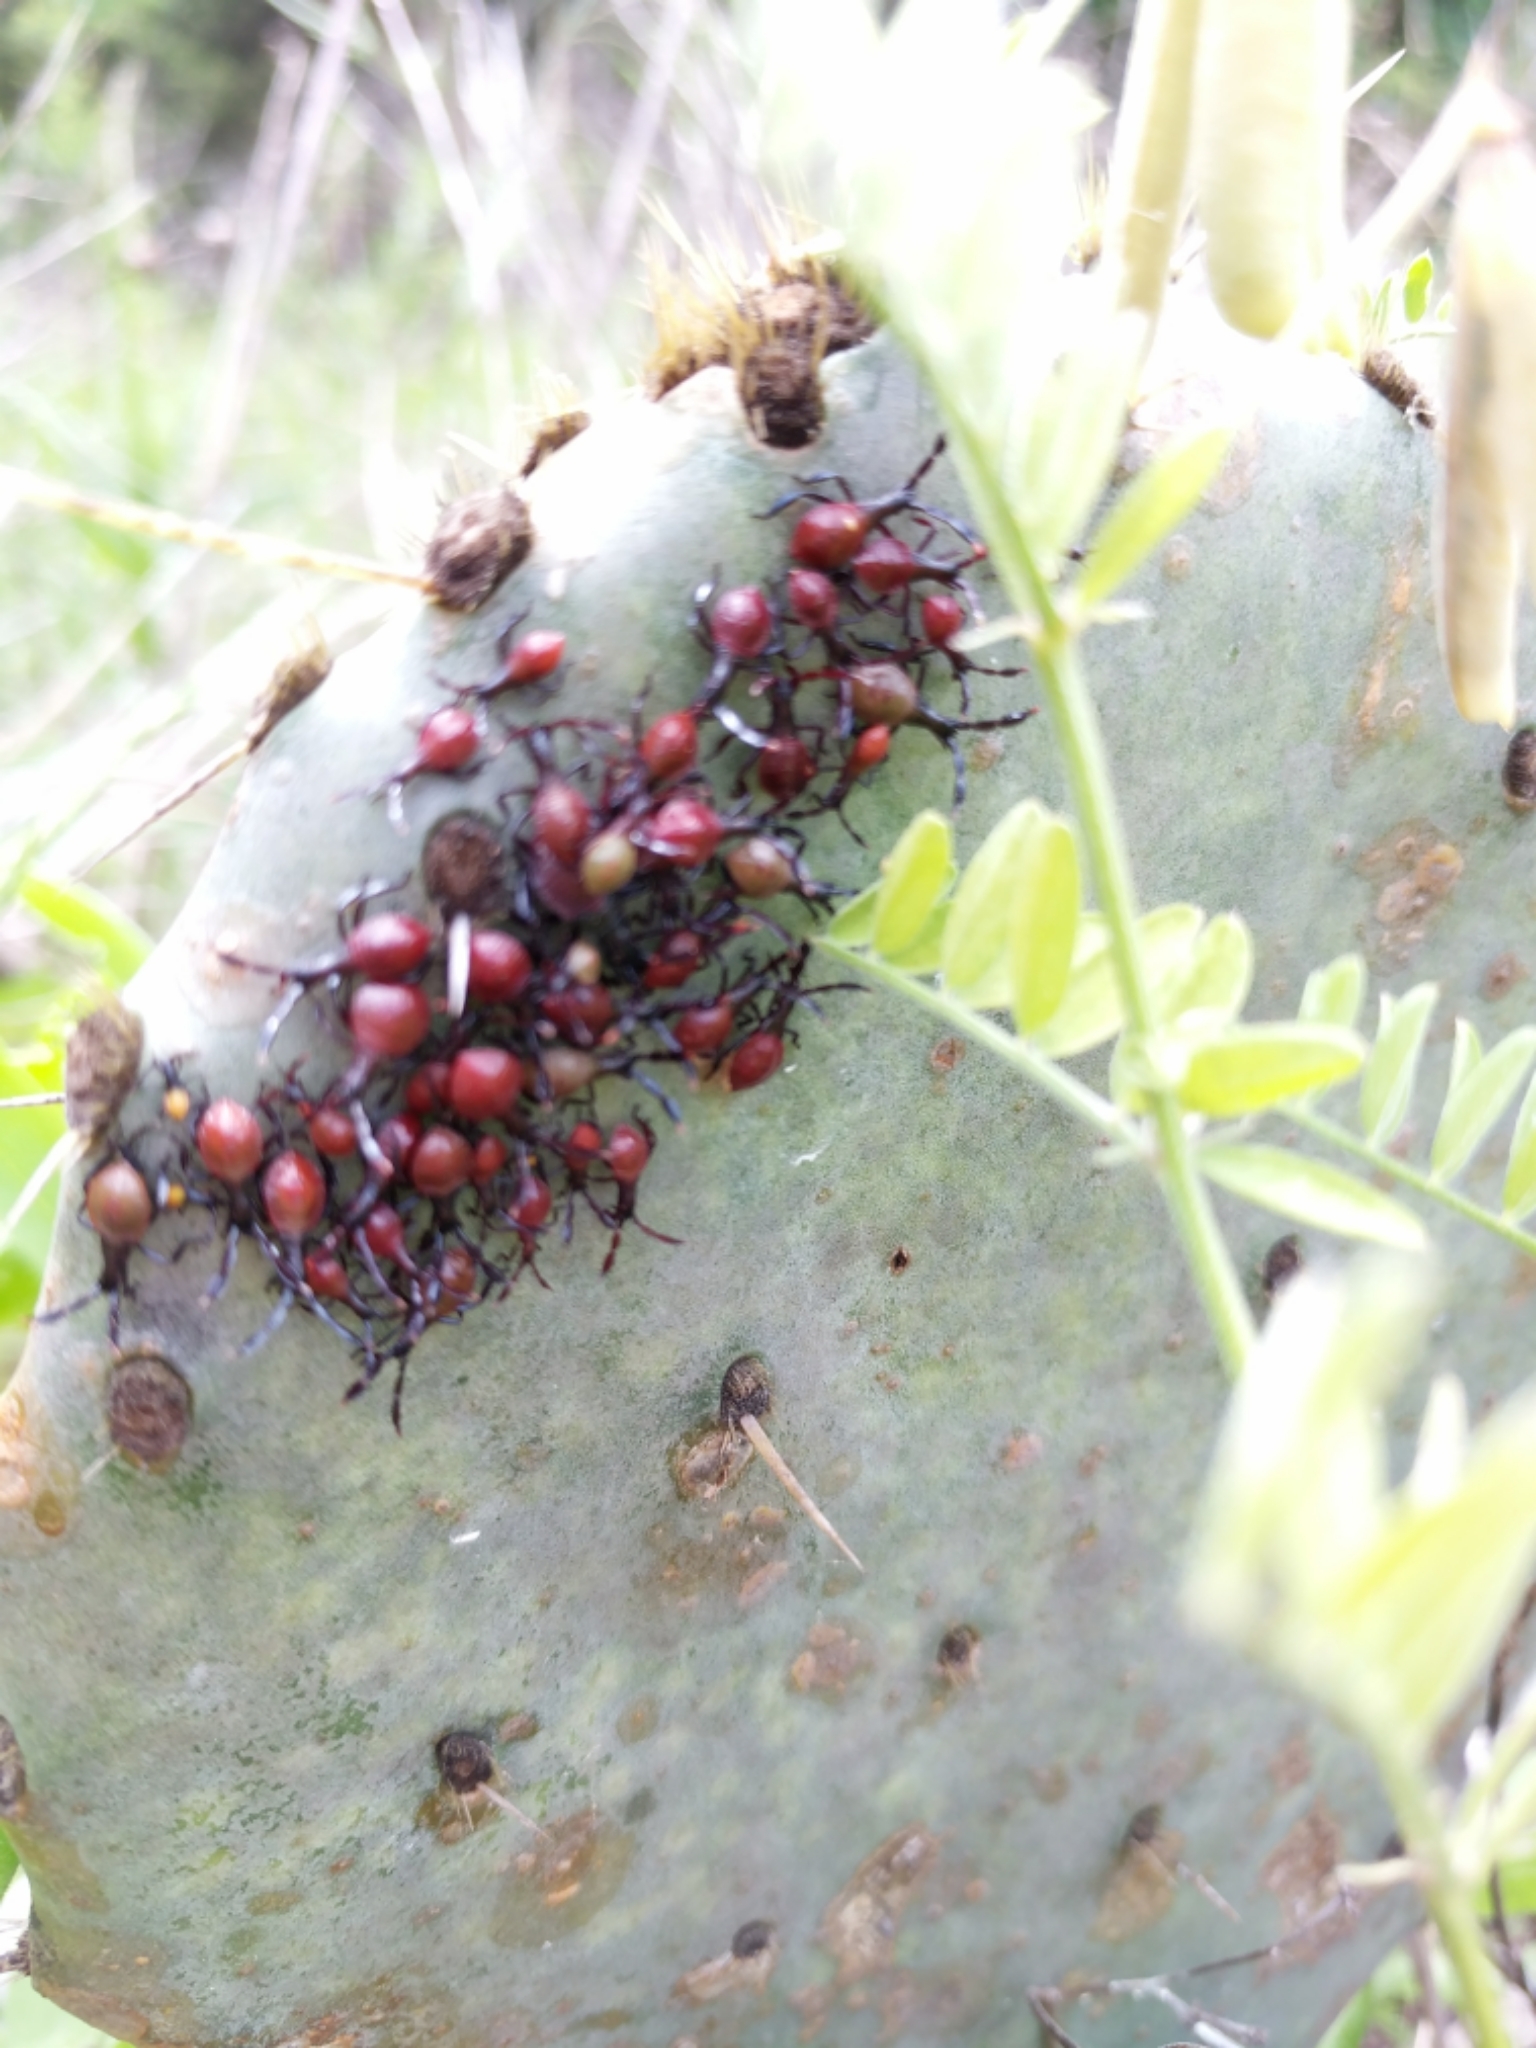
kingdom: Animalia
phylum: Arthropoda
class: Insecta
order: Hemiptera
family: Coreidae
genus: Chelinidea
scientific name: Chelinidea vittiger
